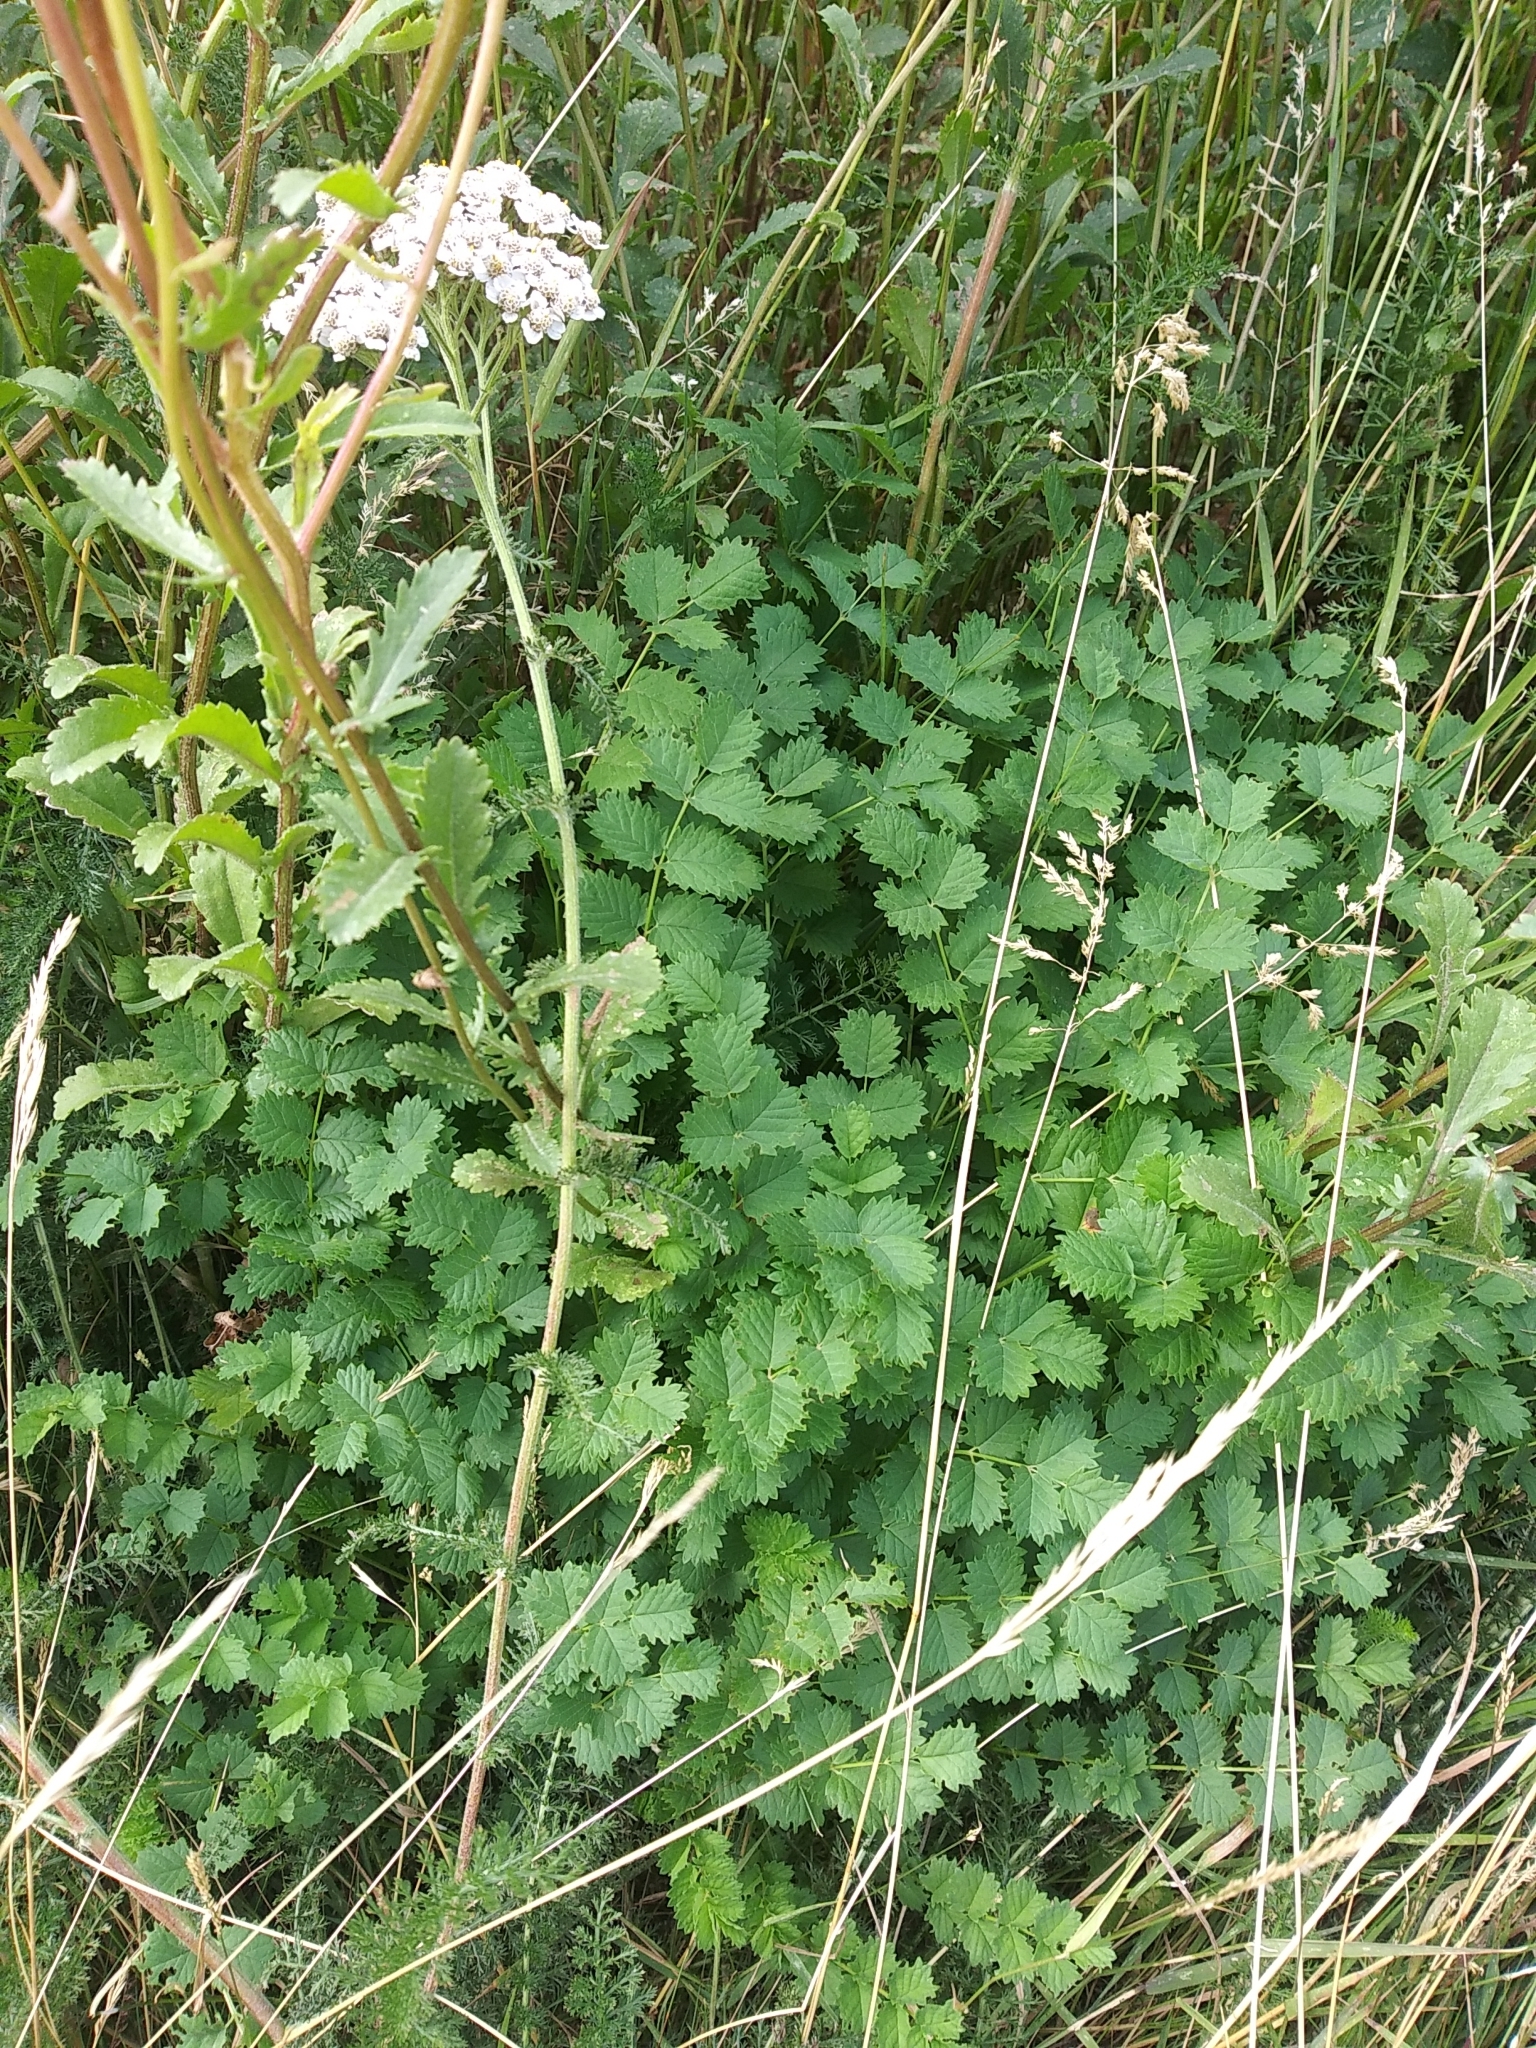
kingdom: Plantae
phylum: Tracheophyta
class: Magnoliopsida
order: Rosales
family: Rosaceae
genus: Poterium
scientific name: Poterium sanguisorba
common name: Salad burnet
